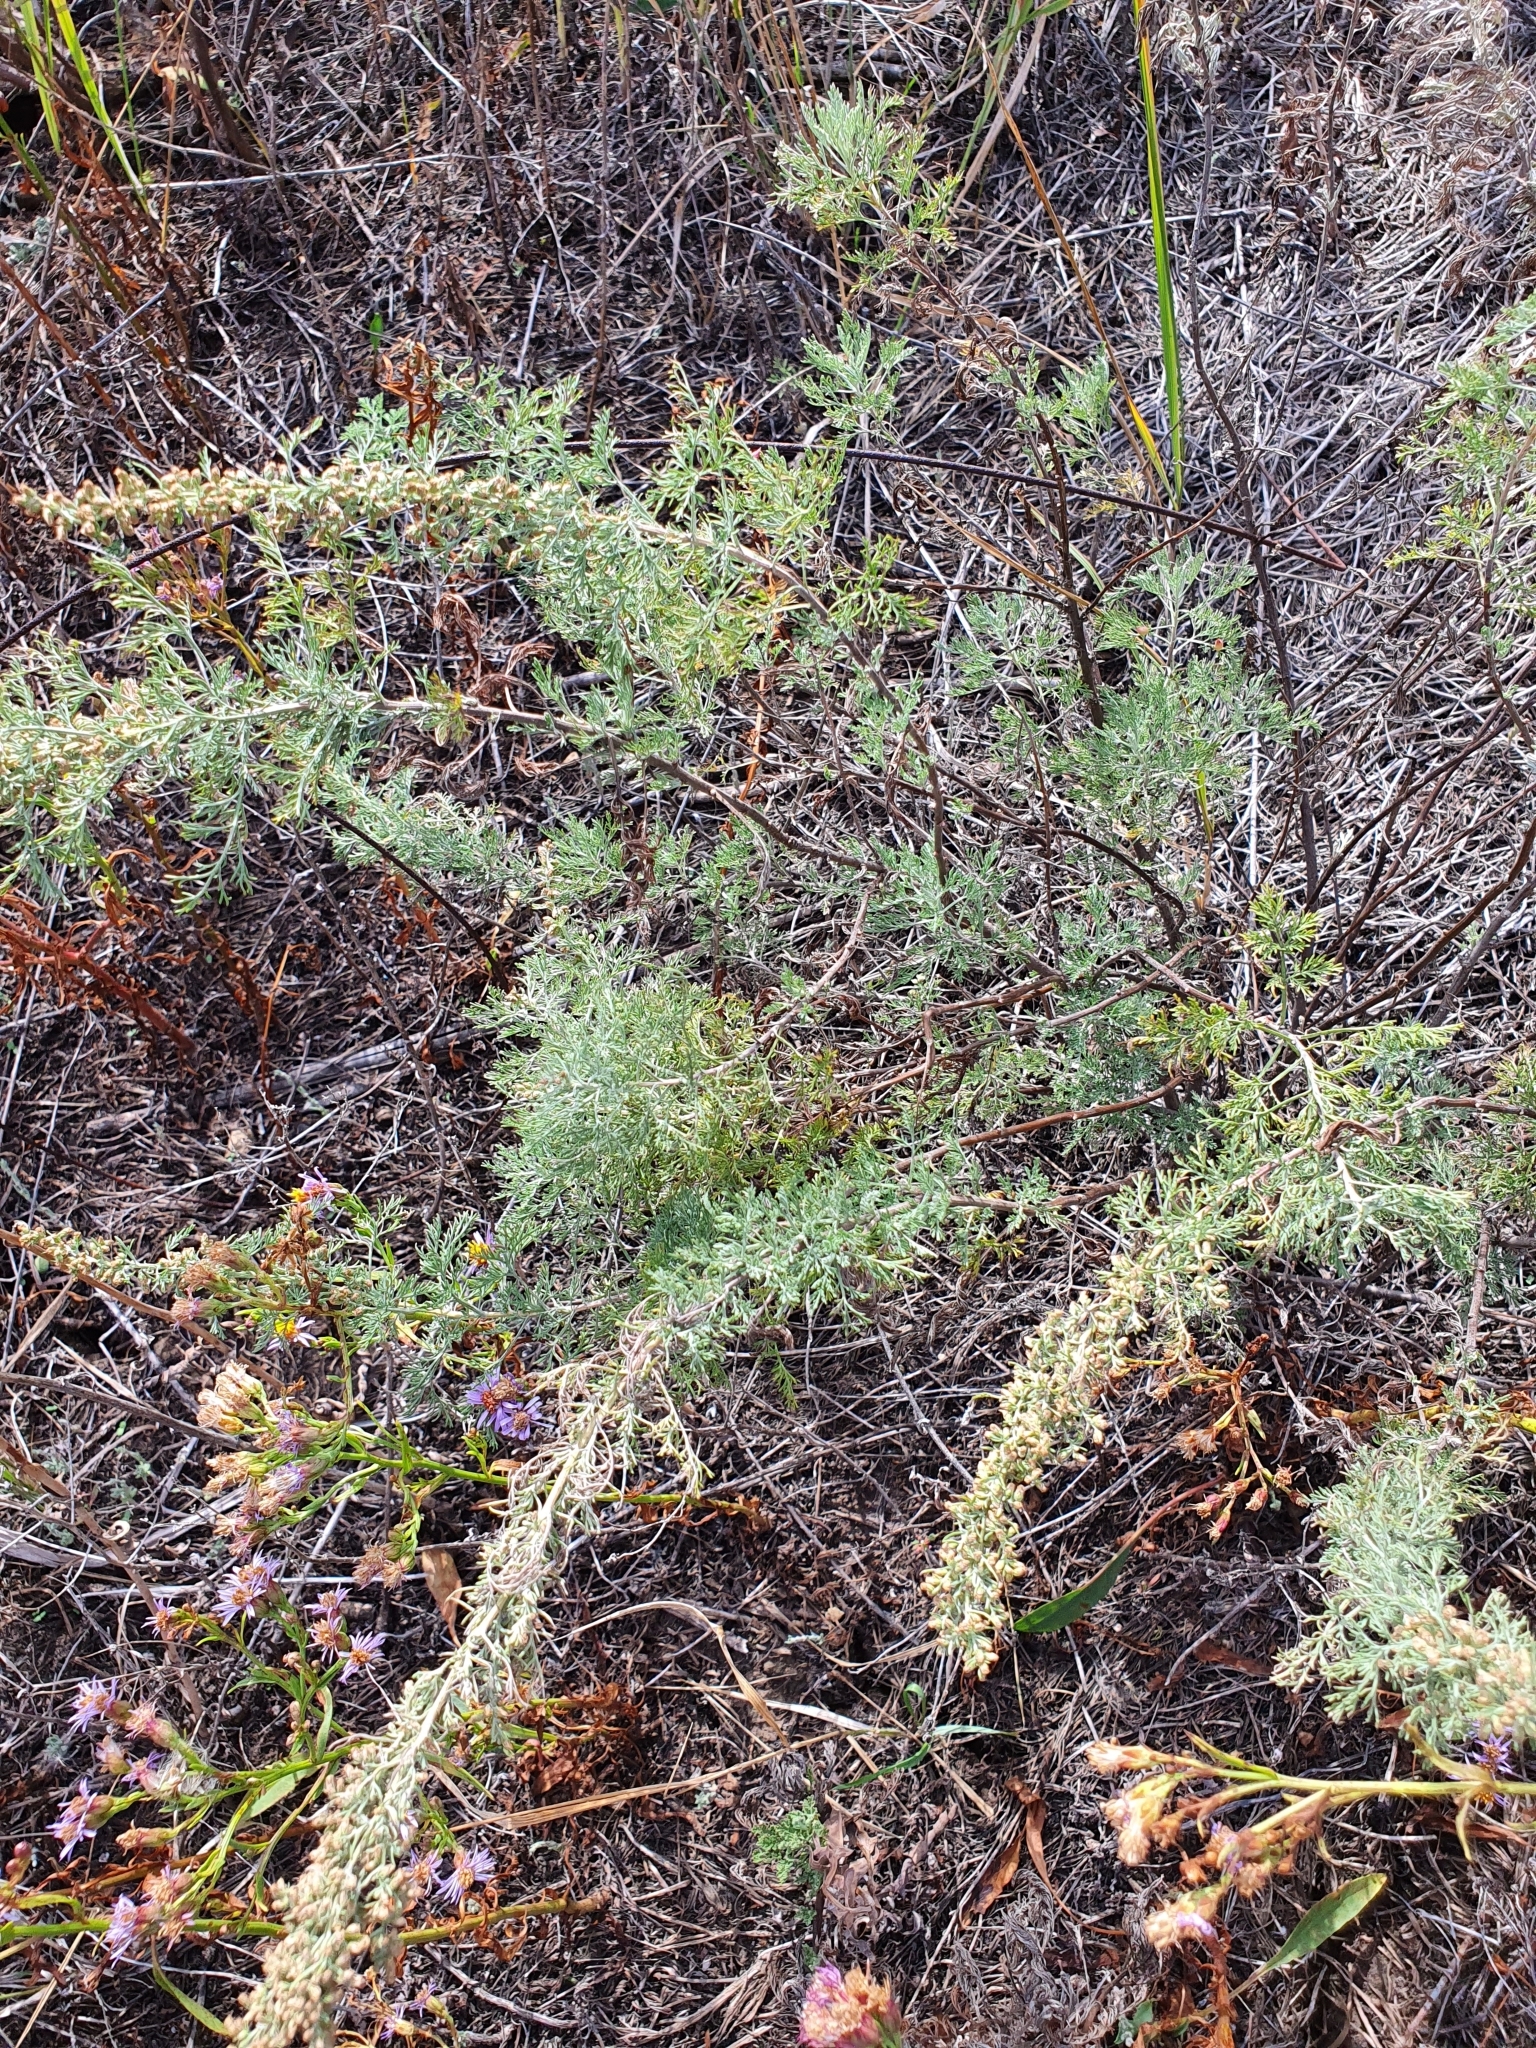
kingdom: Plantae
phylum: Tracheophyta
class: Magnoliopsida
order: Asterales
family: Asteraceae
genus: Artemisia
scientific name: Artemisia abrotanum
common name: Southernwood
